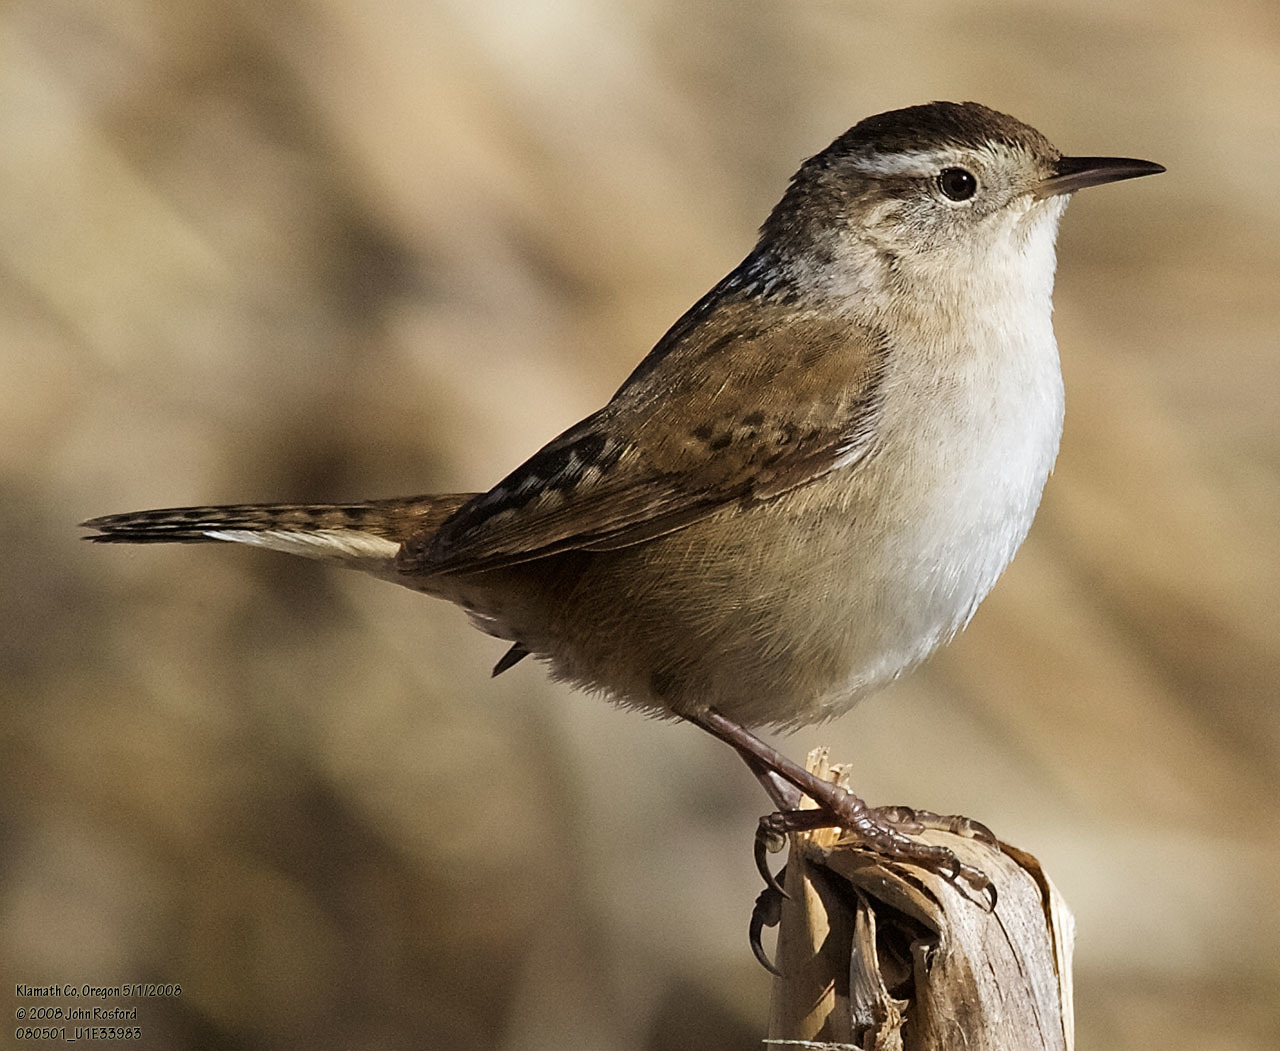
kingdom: Animalia
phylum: Chordata
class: Aves
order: Passeriformes
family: Troglodytidae
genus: Cistothorus
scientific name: Cistothorus palustris
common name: Marsh wren
